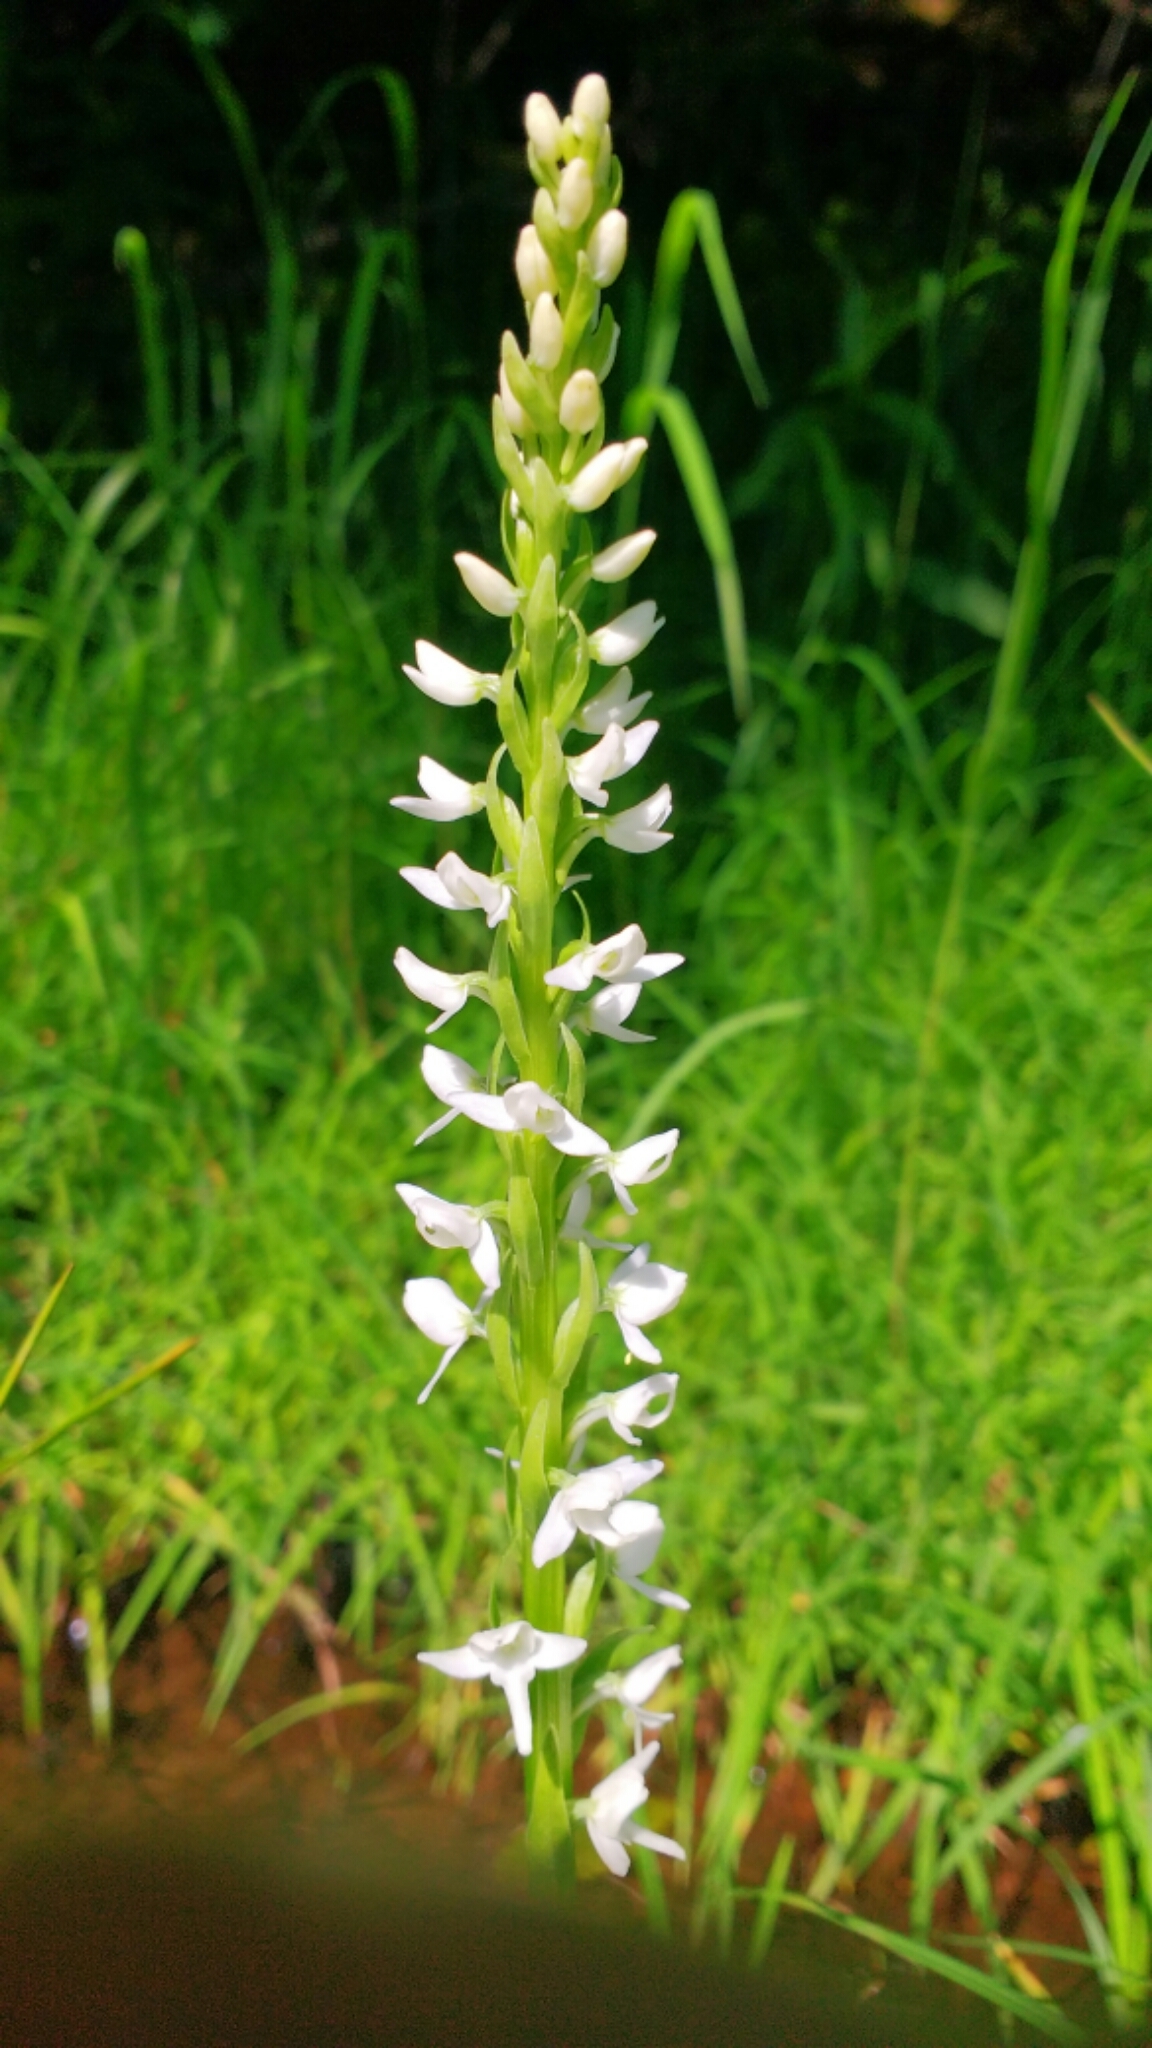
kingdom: Plantae
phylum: Tracheophyta
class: Liliopsida
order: Asparagales
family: Orchidaceae
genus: Platanthera
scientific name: Platanthera dilatata
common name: Bog candles
